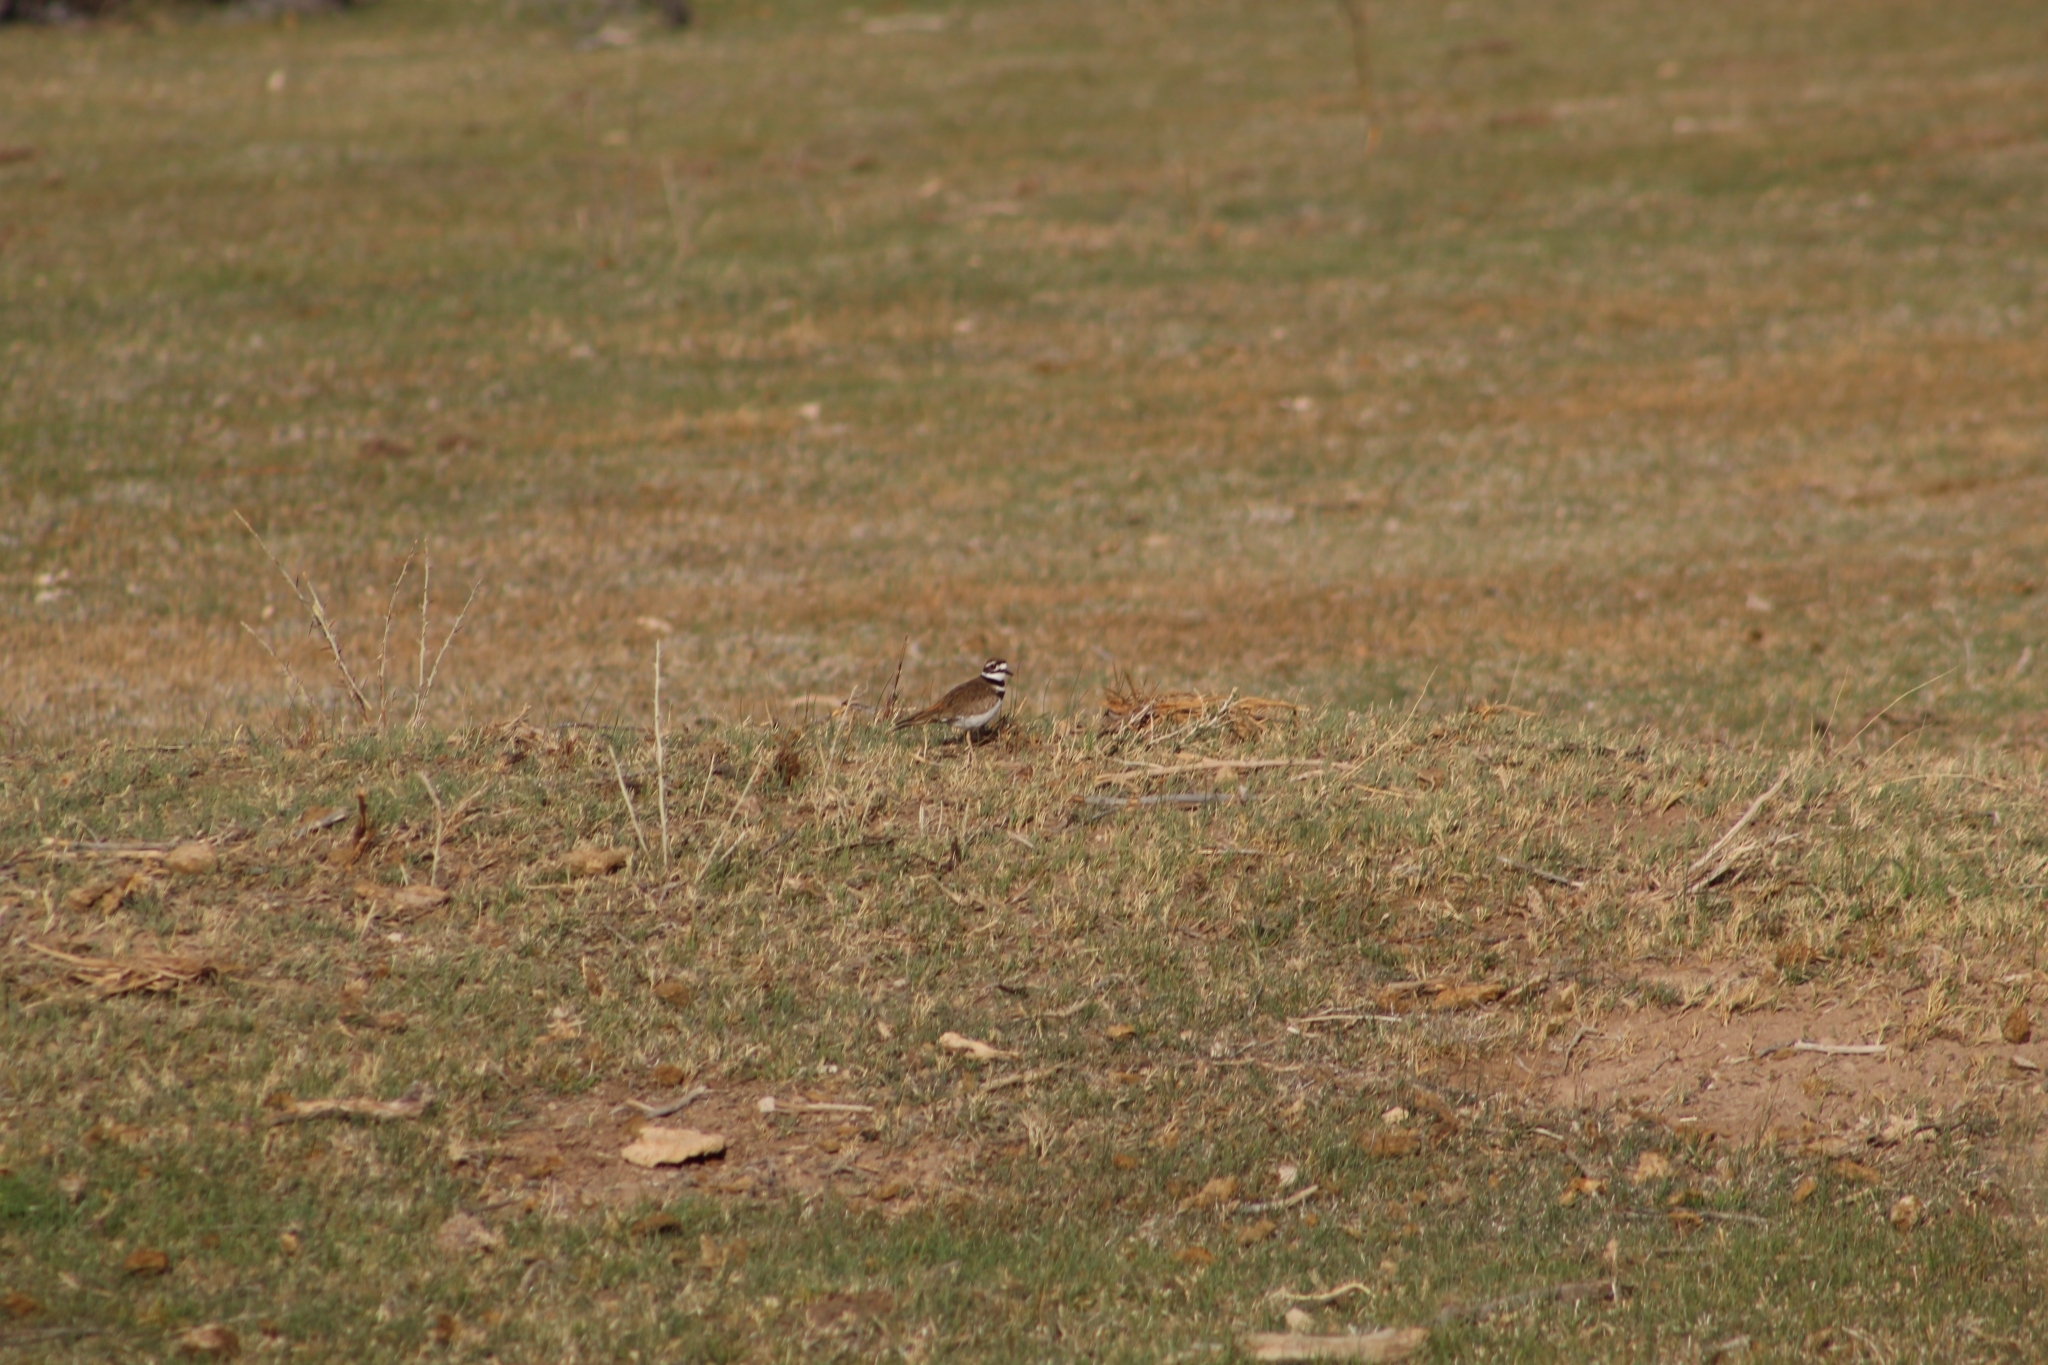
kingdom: Animalia
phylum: Chordata
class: Aves
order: Charadriiformes
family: Charadriidae
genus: Charadrius
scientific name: Charadrius vociferus
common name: Killdeer
